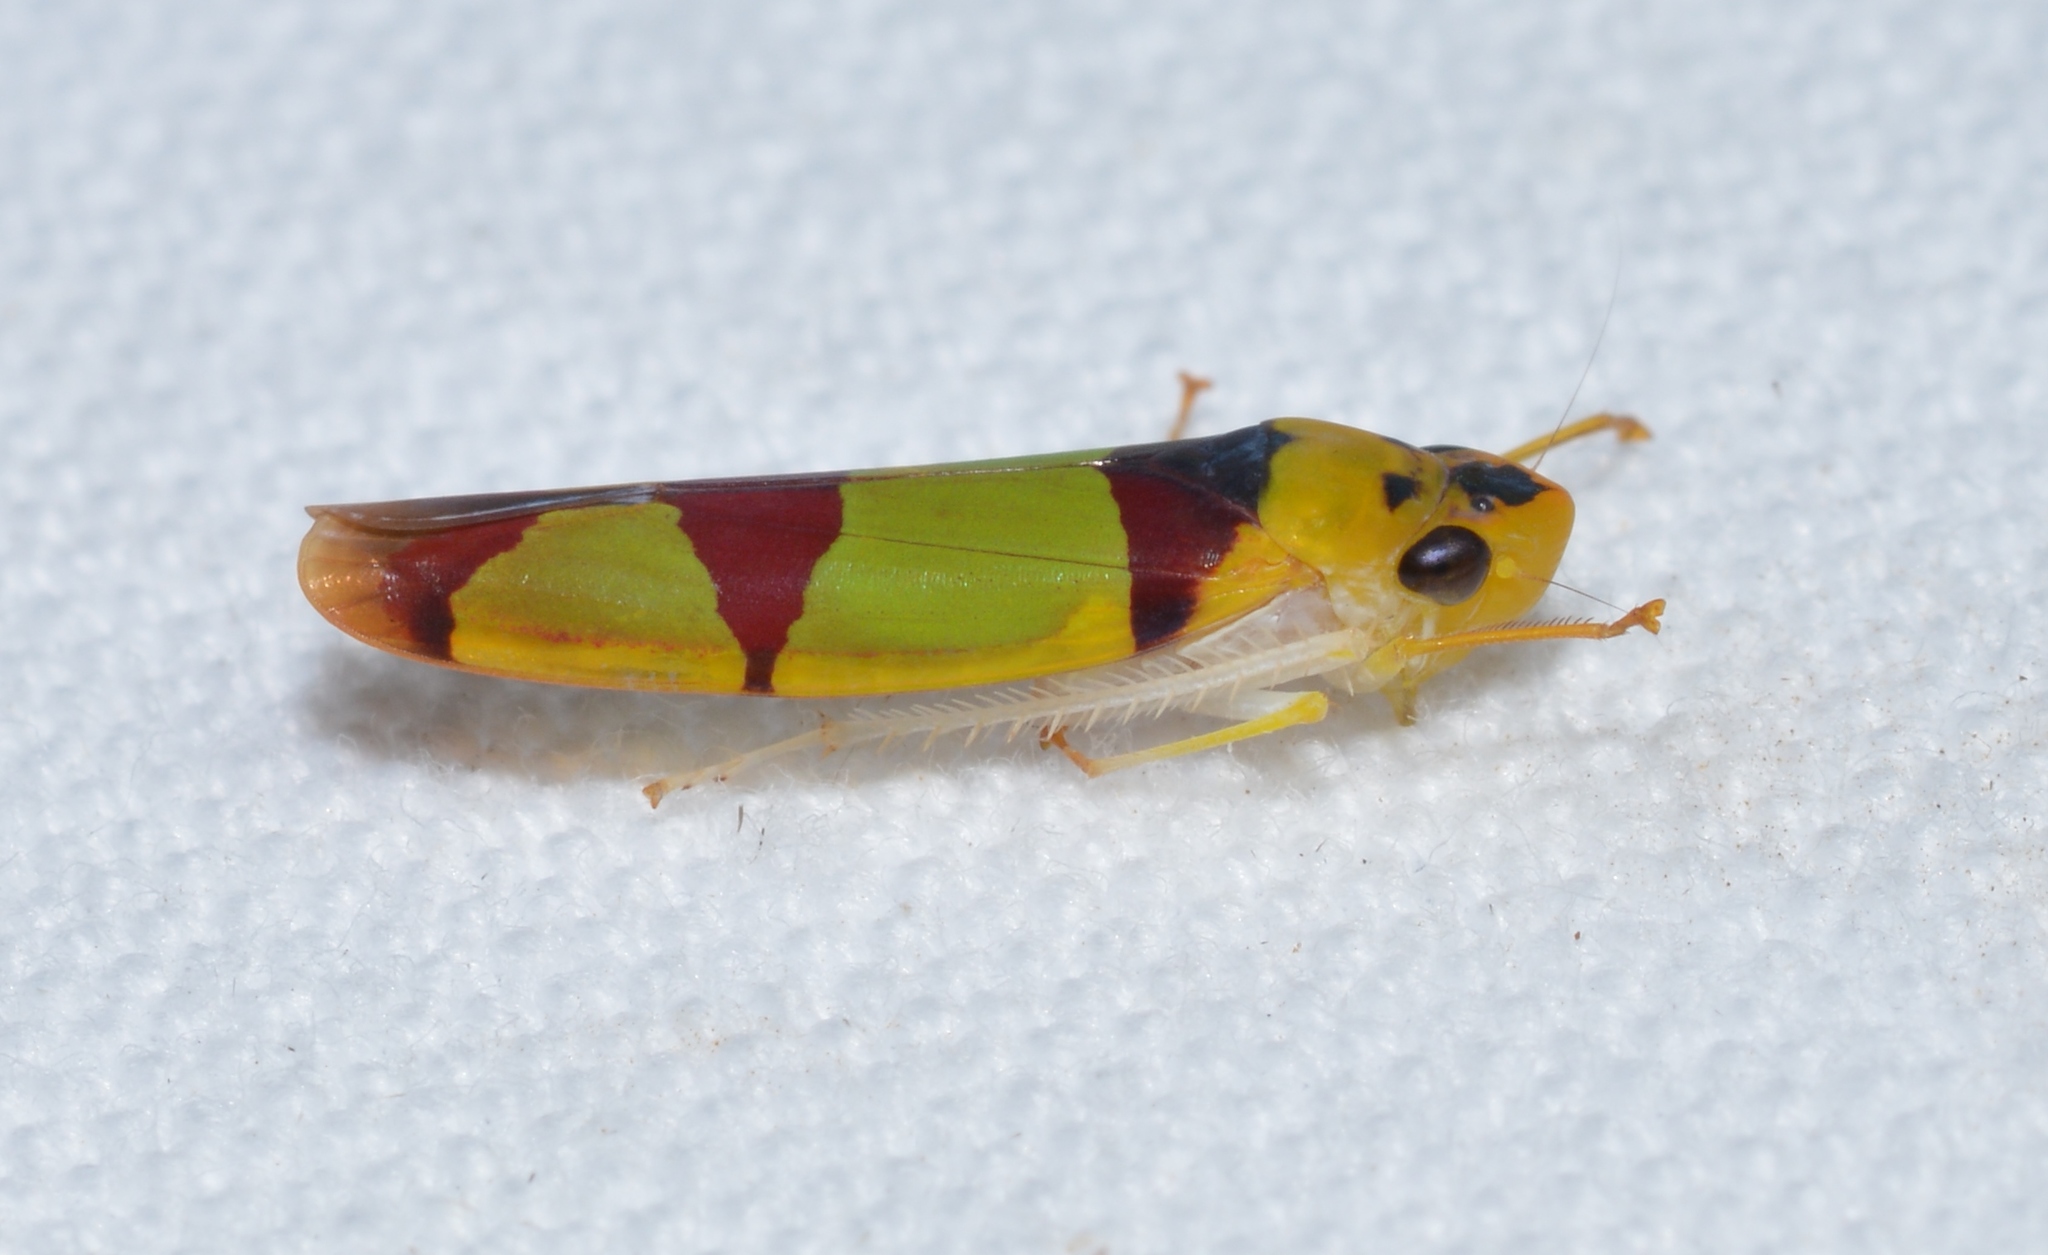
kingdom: Animalia
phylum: Arthropoda
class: Insecta
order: Hemiptera
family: Cicadellidae
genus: Baleja
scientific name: Baleja rufofasciata
